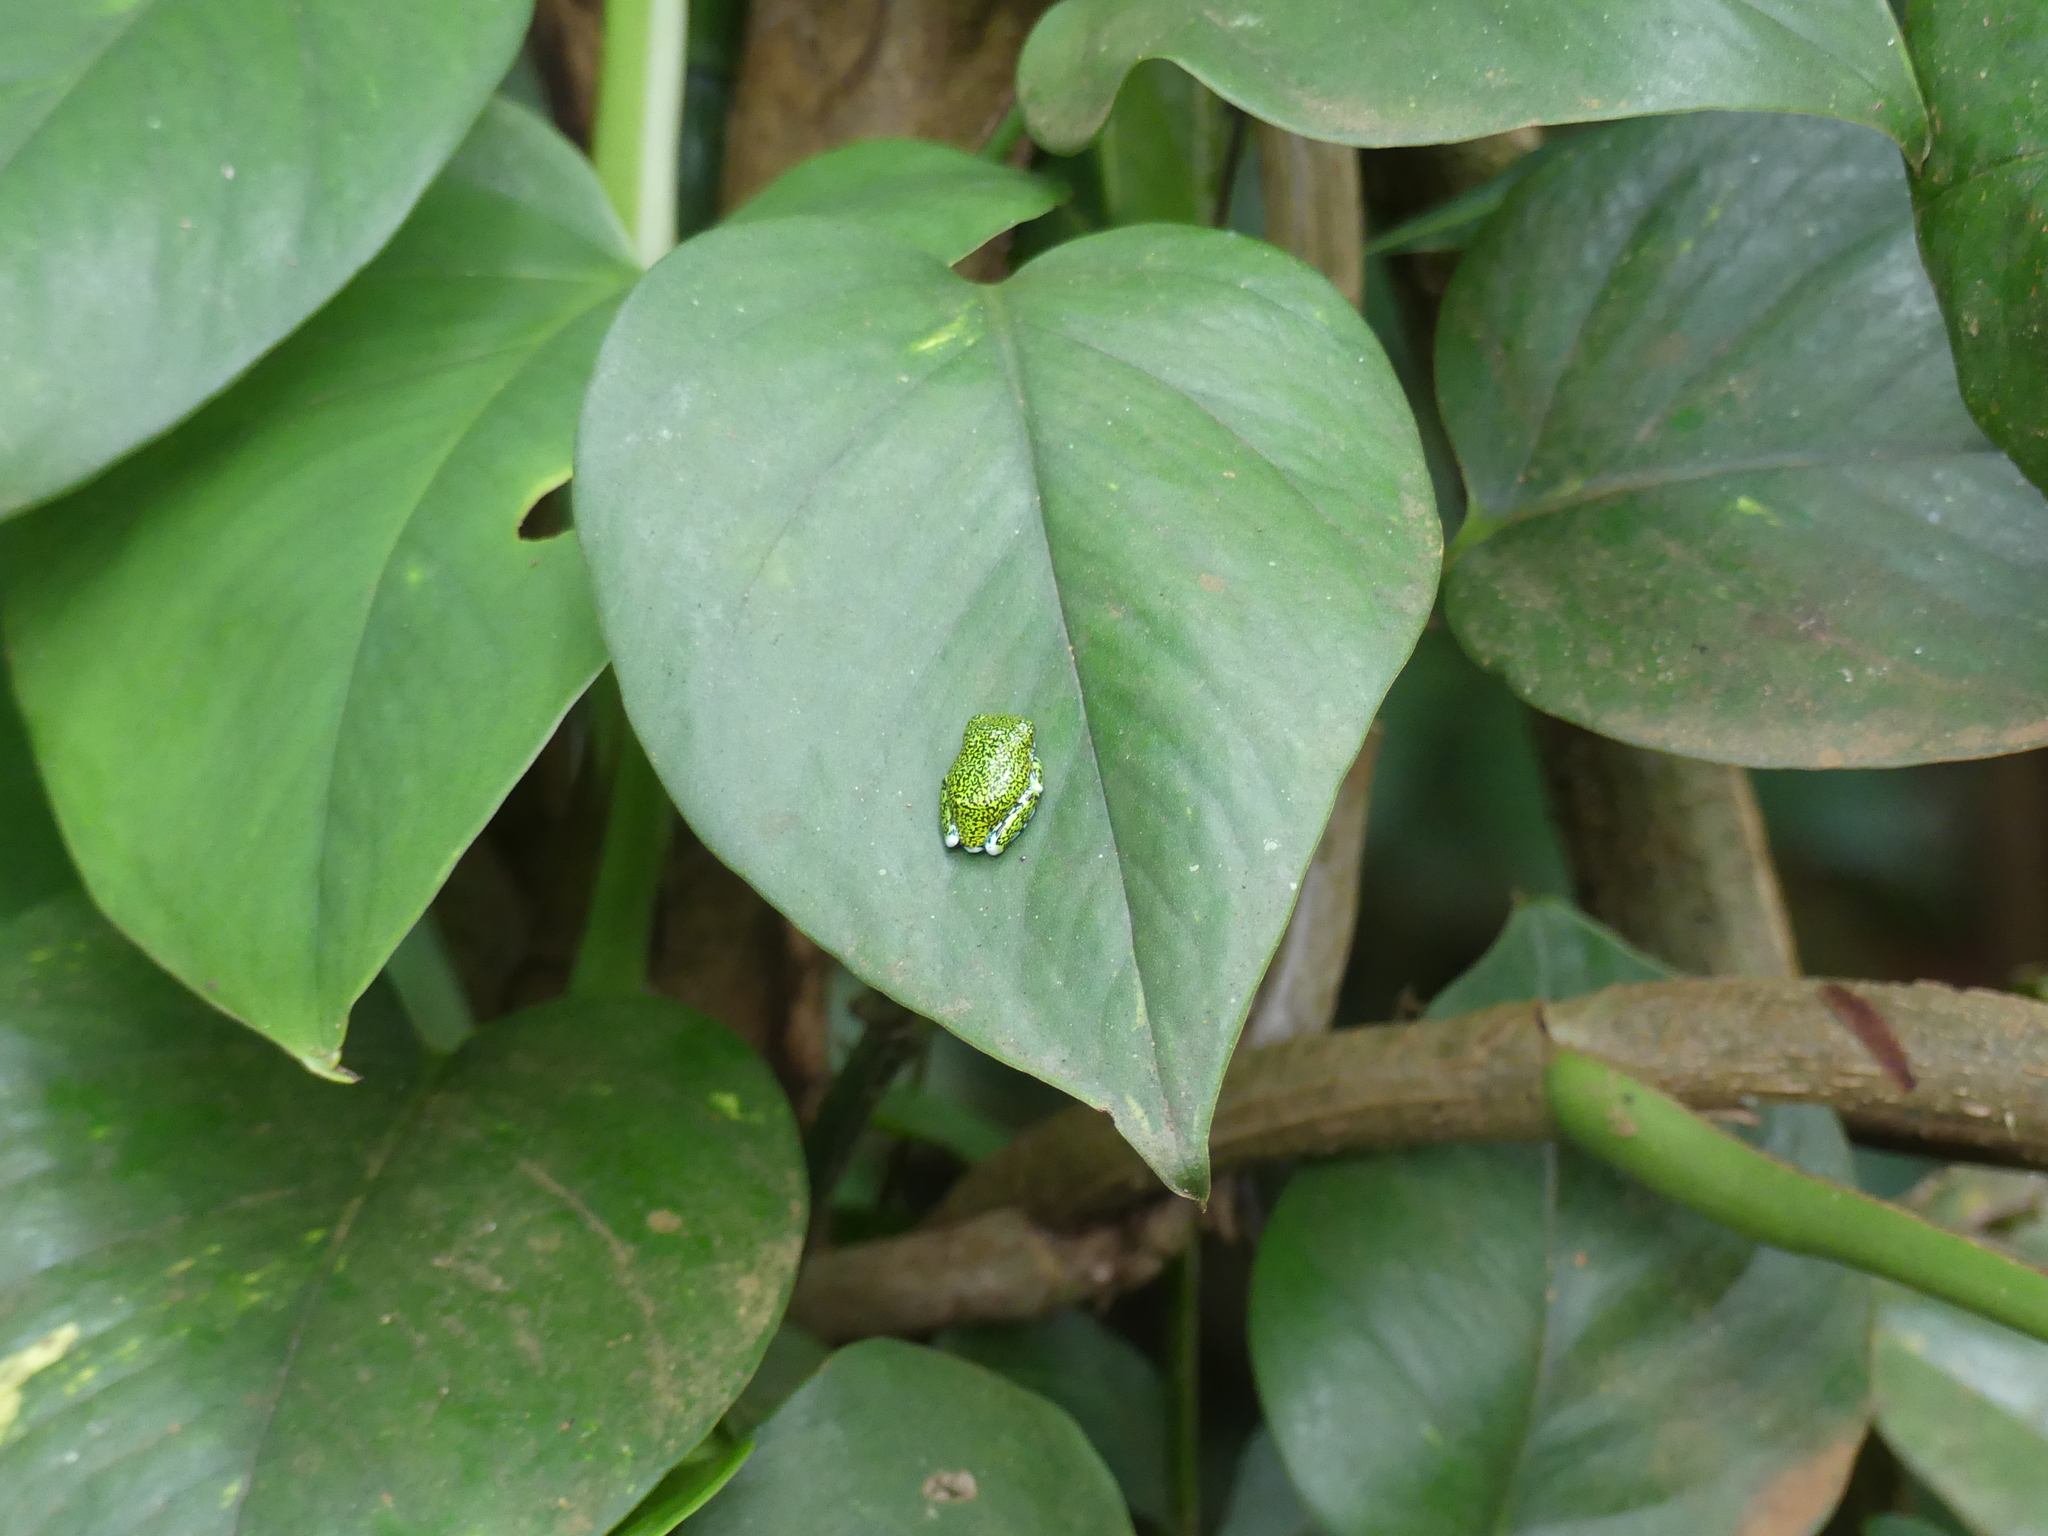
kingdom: Animalia
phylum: Chordata
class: Amphibia
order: Anura
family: Arthroleptidae
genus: Leptopelis
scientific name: Leptopelis vermiculatus
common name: Amani forest treefrog
